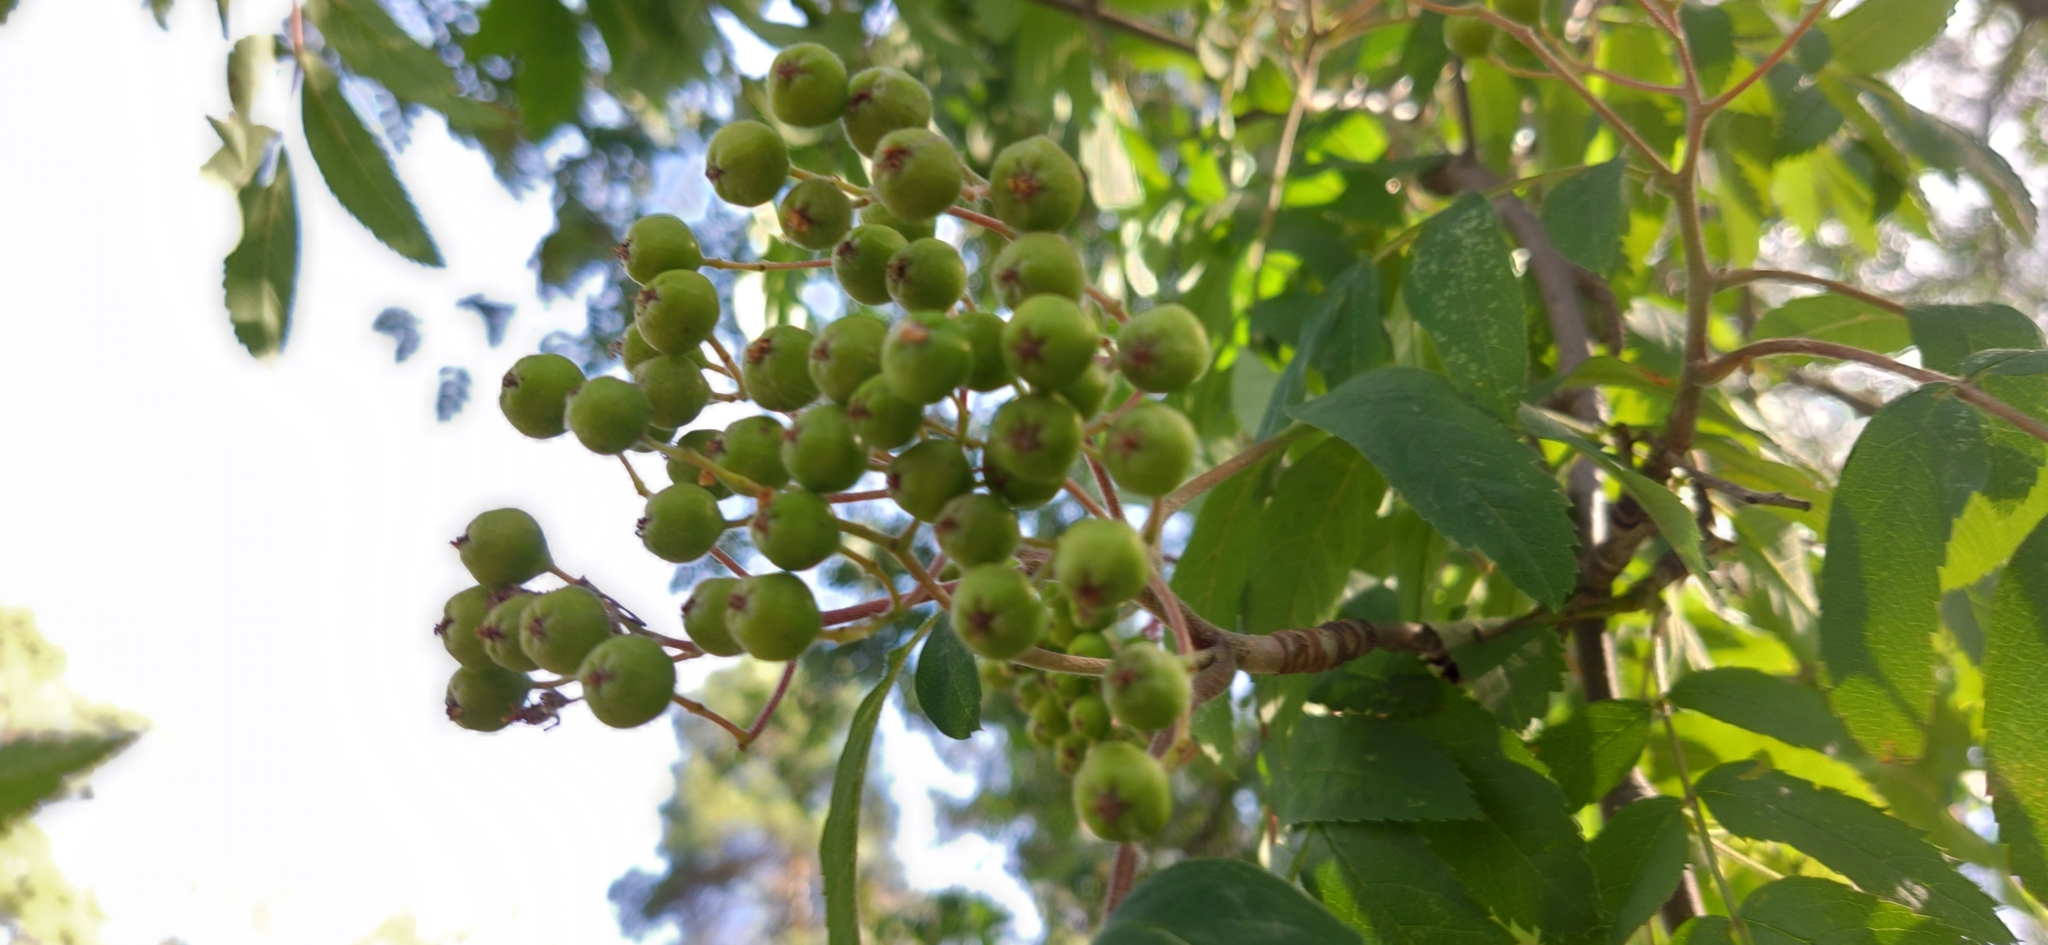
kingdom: Plantae
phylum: Tracheophyta
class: Magnoliopsida
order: Rosales
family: Rosaceae
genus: Sorbus
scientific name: Sorbus aucuparia
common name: Rowan
